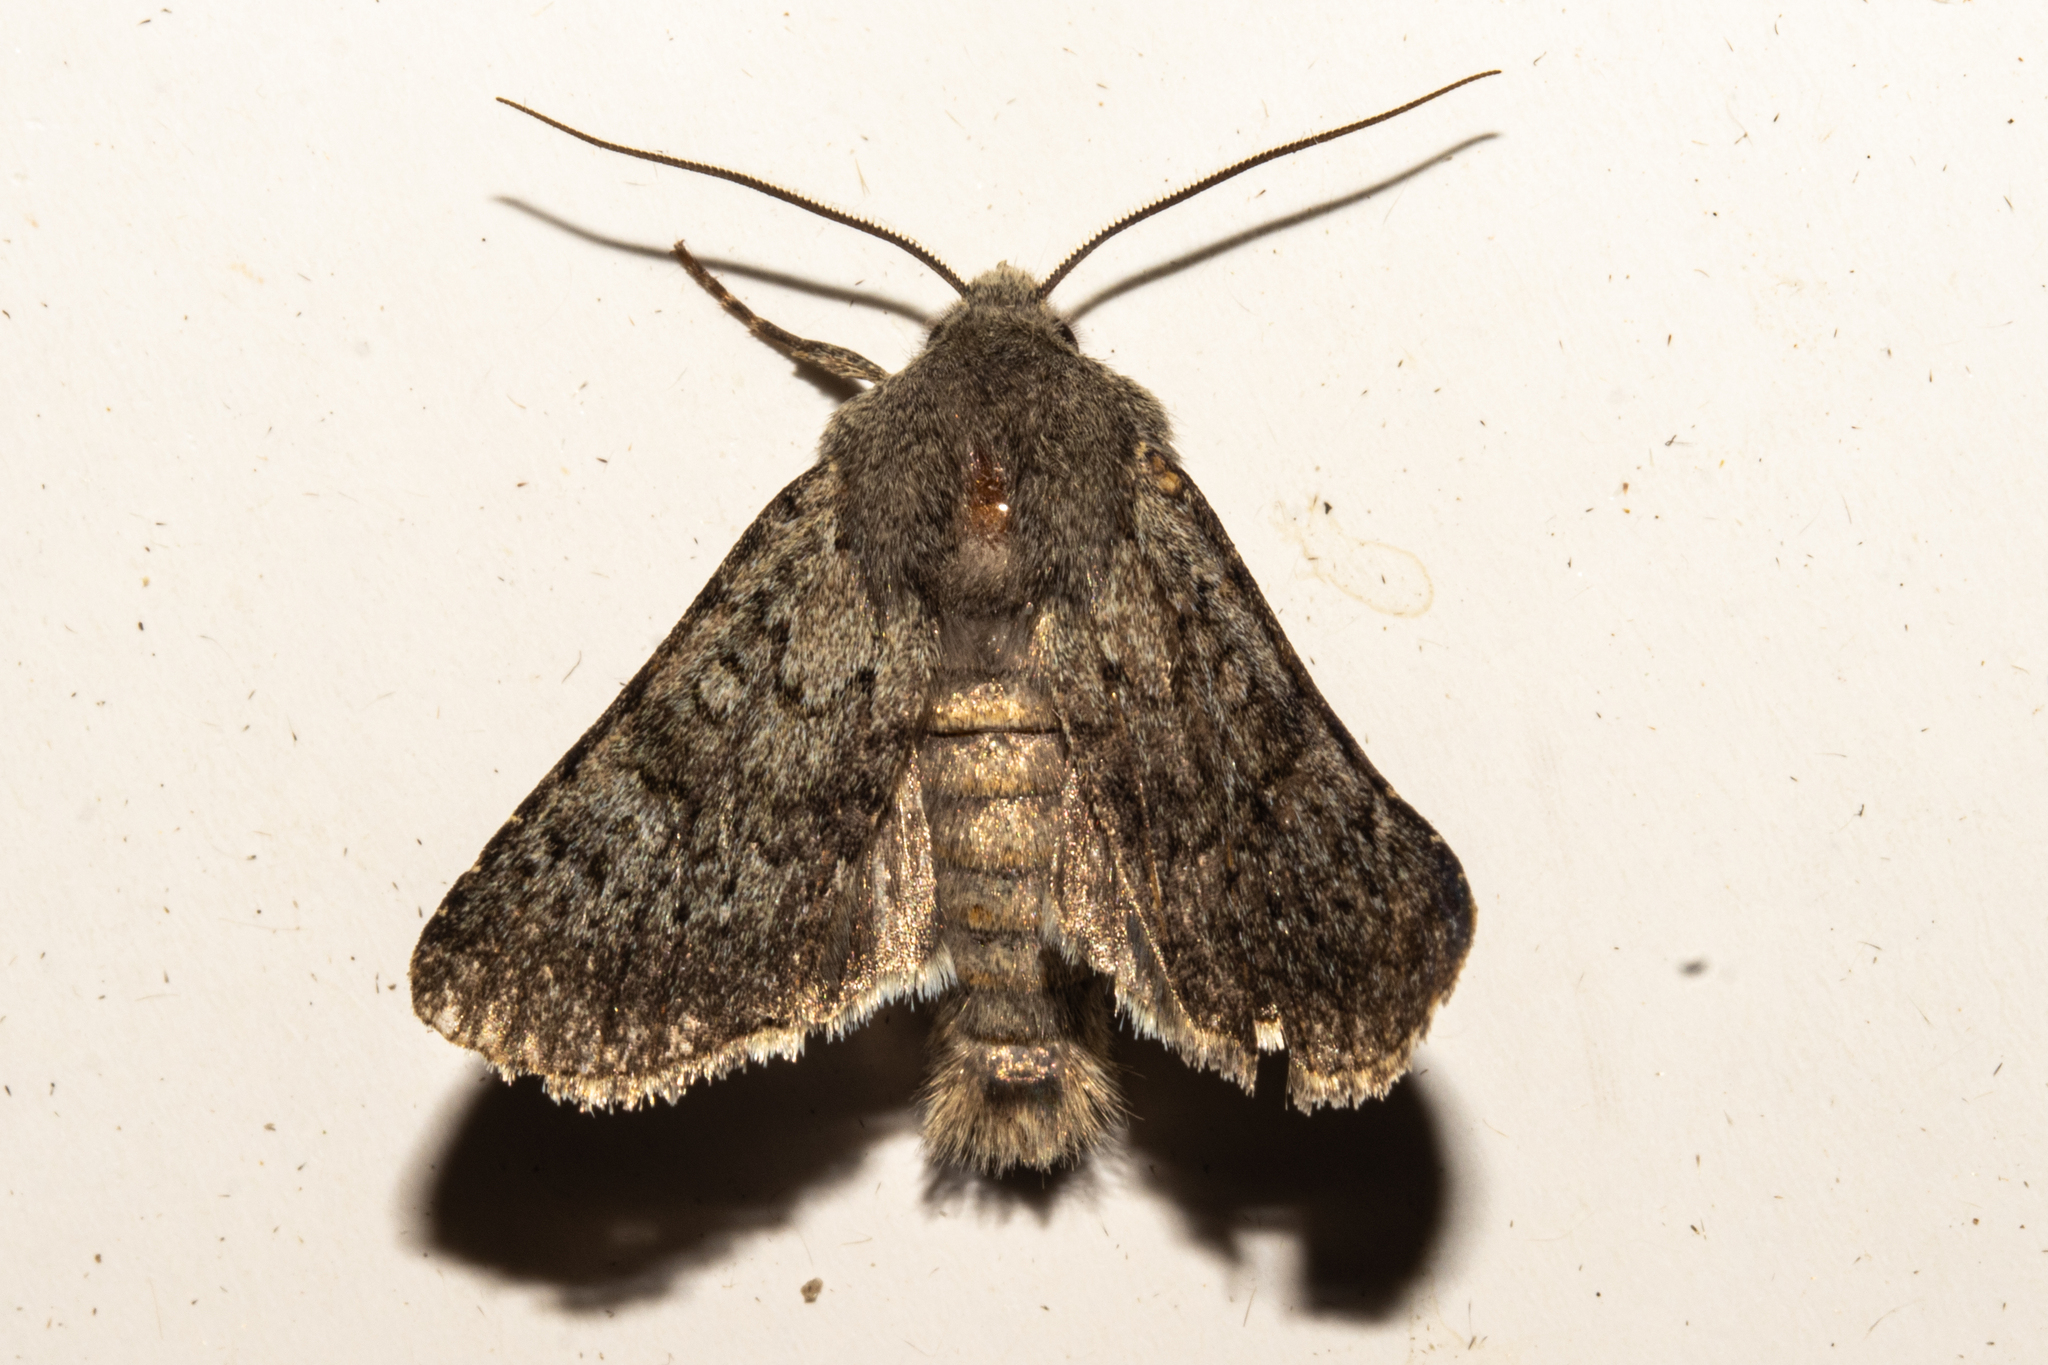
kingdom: Animalia
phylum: Arthropoda
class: Insecta
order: Lepidoptera
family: Noctuidae
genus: Ichneutica
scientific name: Ichneutica moderata
